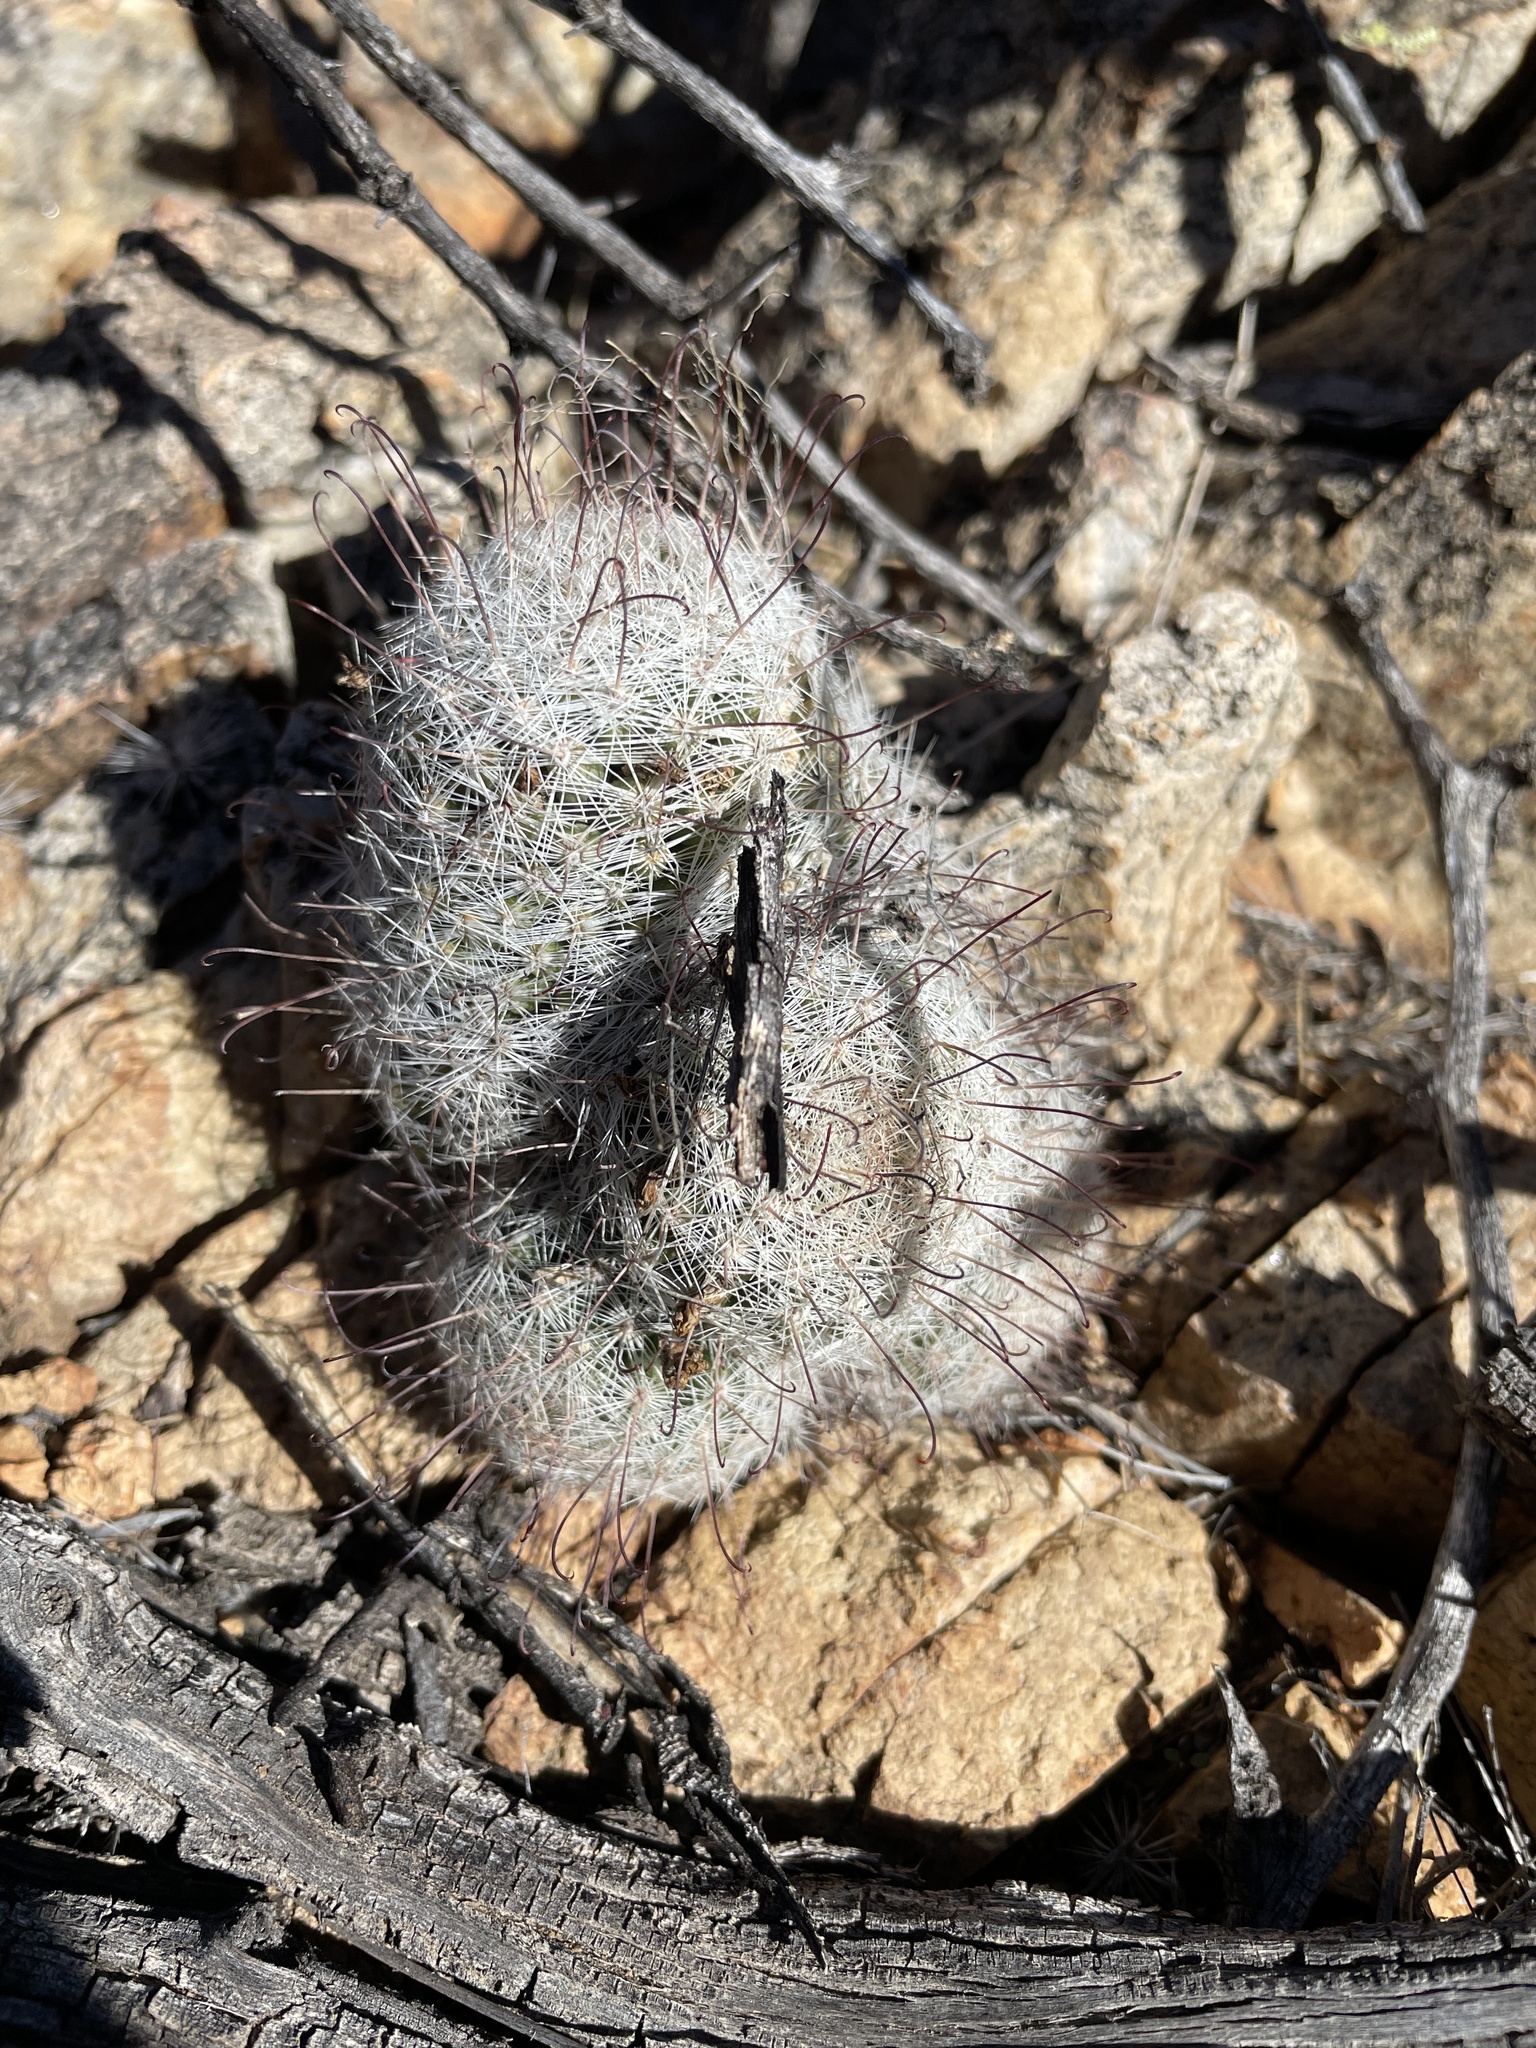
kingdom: Plantae
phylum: Tracheophyta
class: Magnoliopsida
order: Caryophyllales
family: Cactaceae
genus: Cochemiea
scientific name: Cochemiea grahamii
